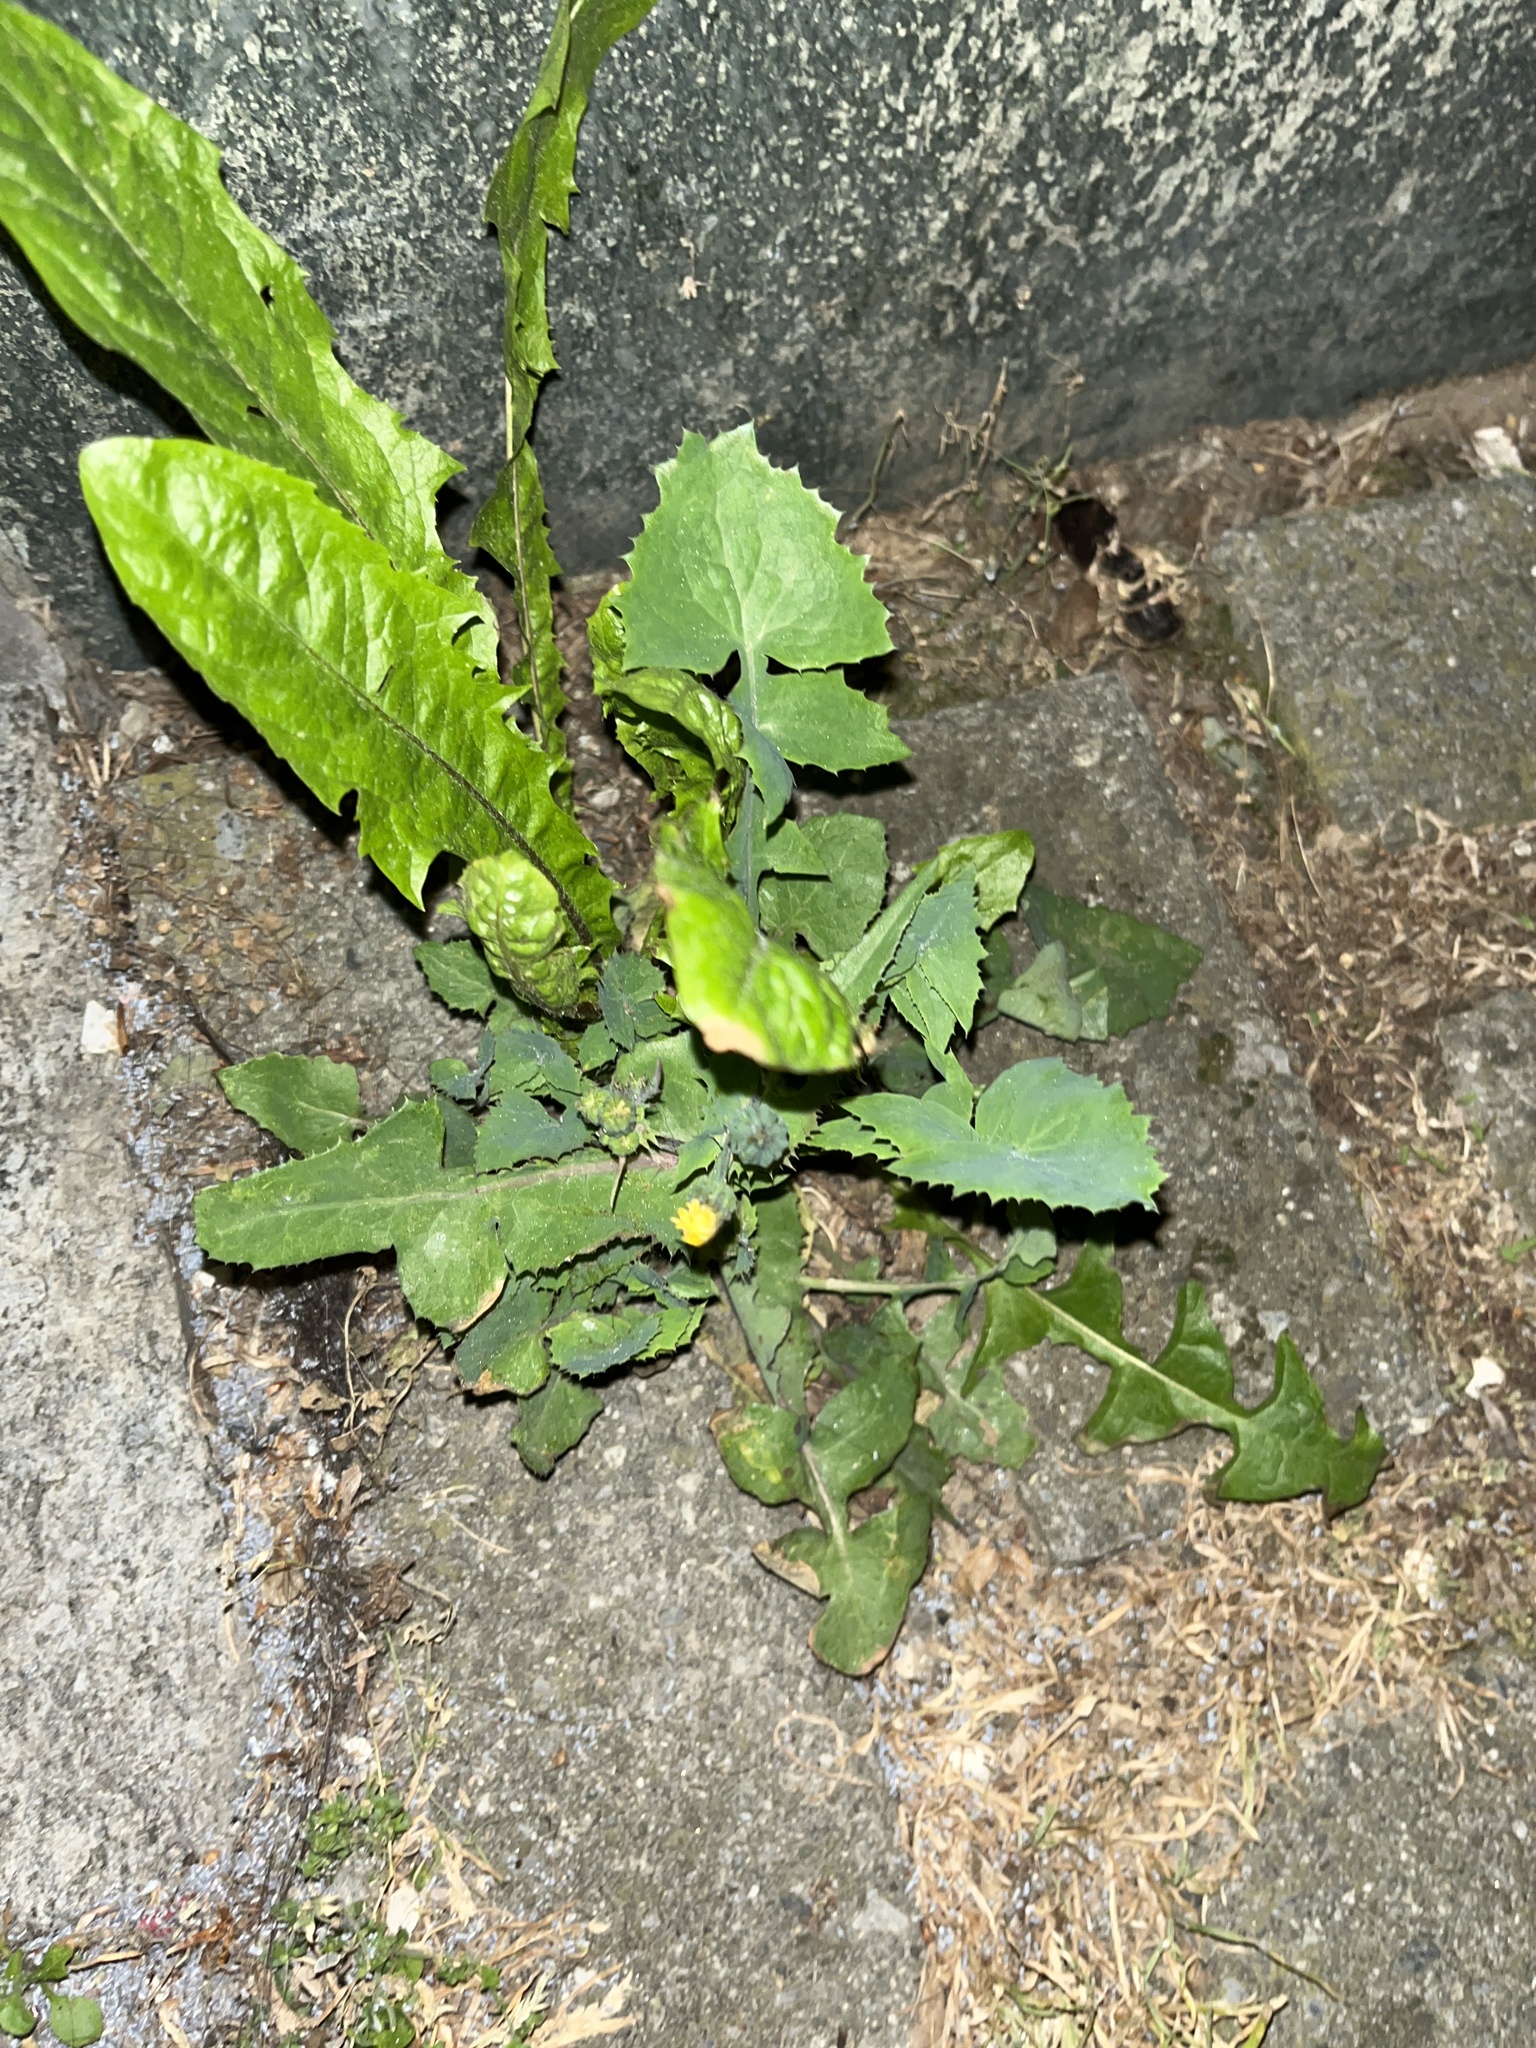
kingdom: Plantae
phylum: Tracheophyta
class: Magnoliopsida
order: Asterales
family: Asteraceae
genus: Sonchus
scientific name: Sonchus oleraceus
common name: Common sowthistle
